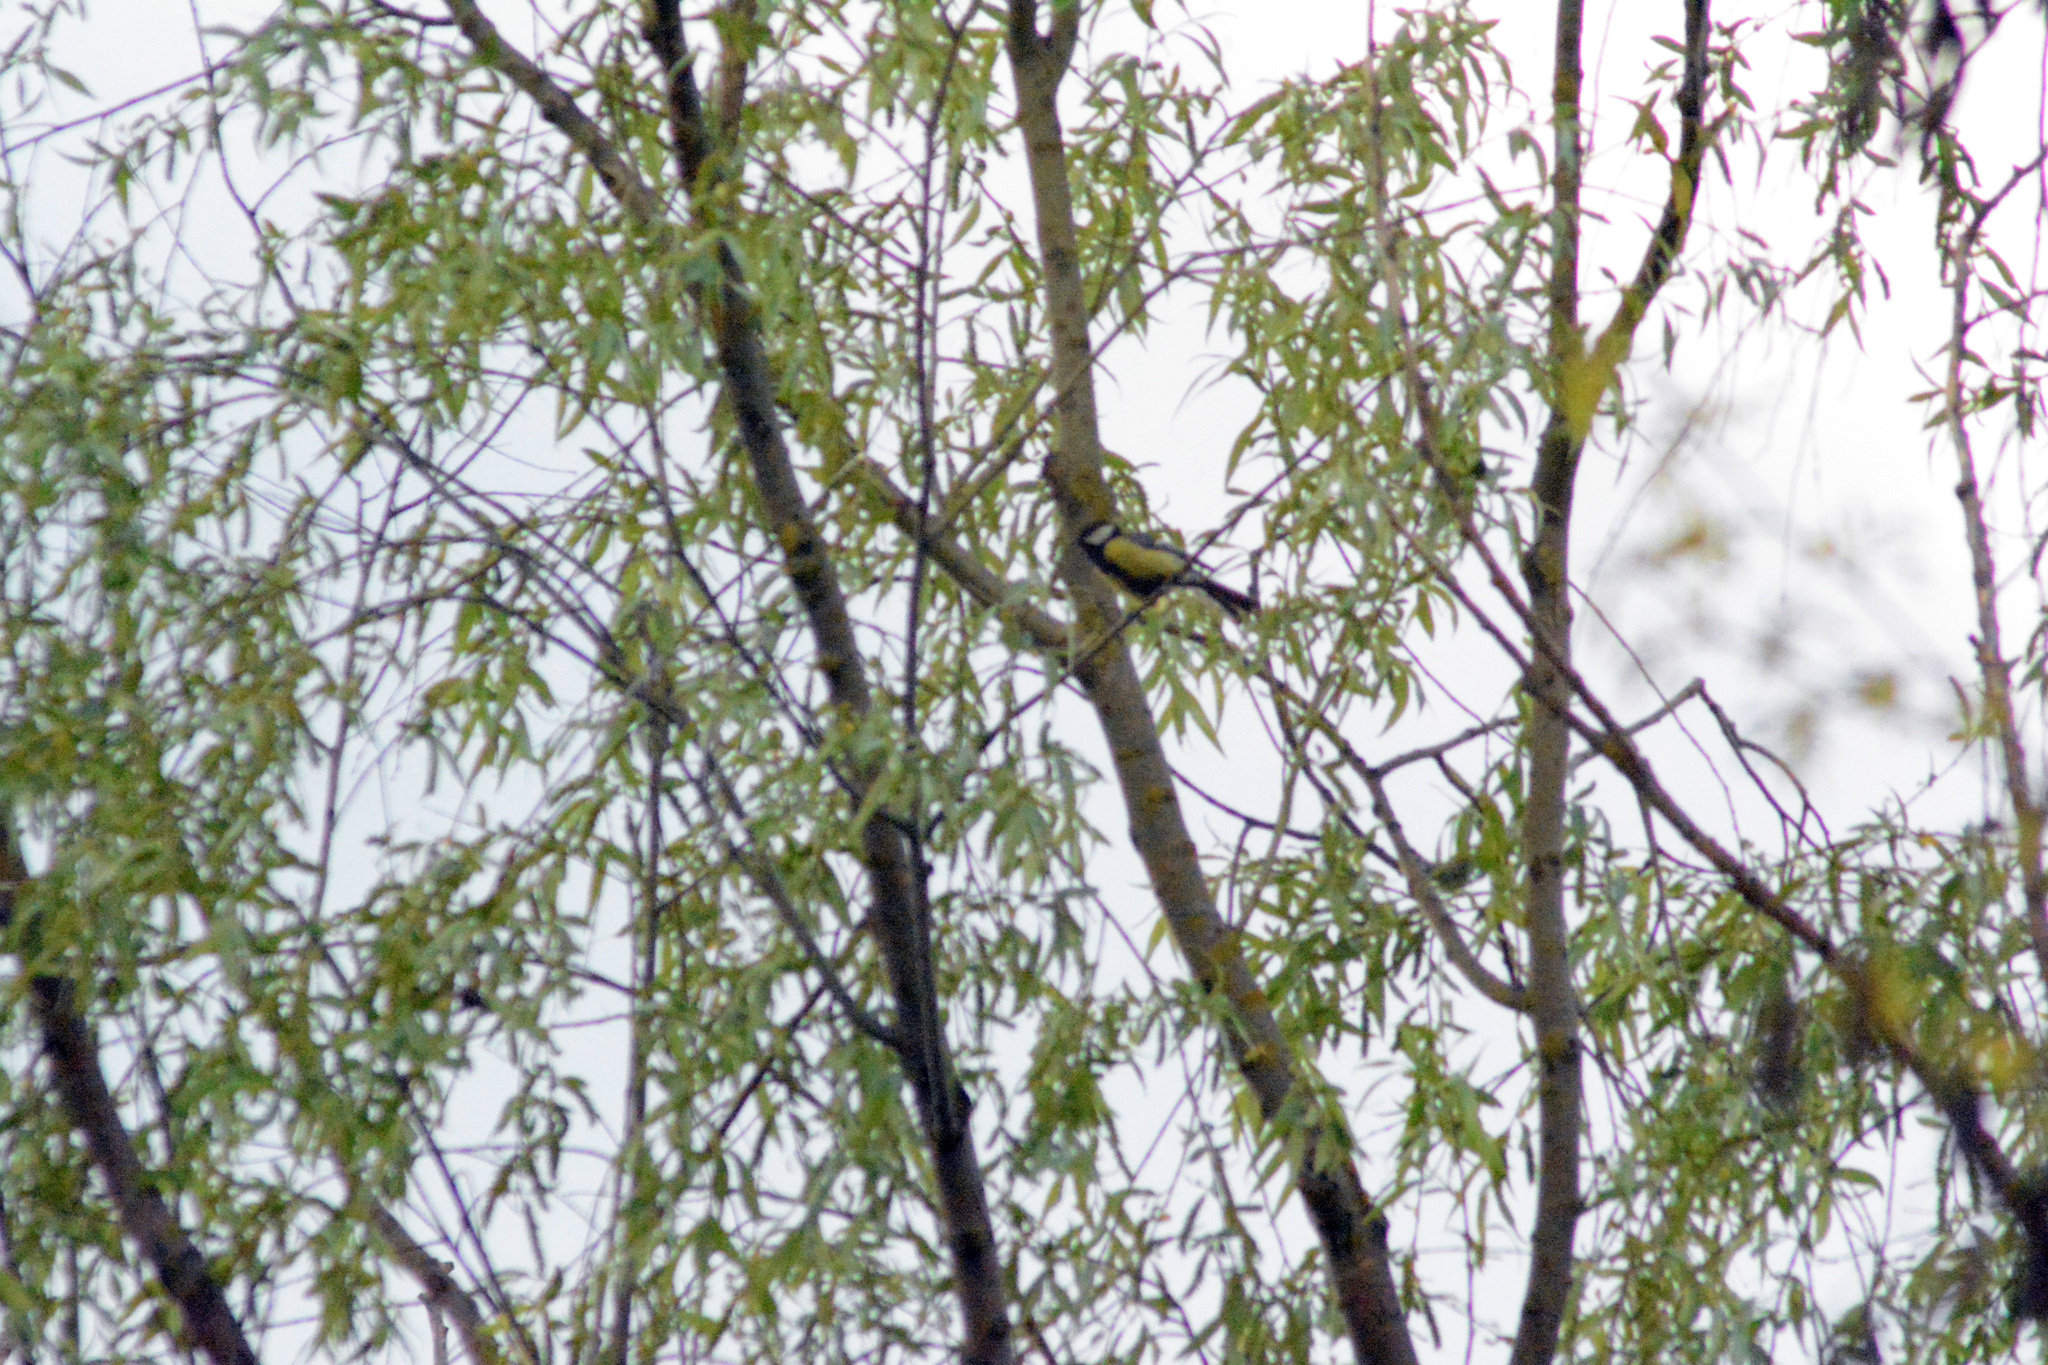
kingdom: Animalia
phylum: Chordata
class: Aves
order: Passeriformes
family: Paridae
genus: Parus
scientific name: Parus major
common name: Great tit
